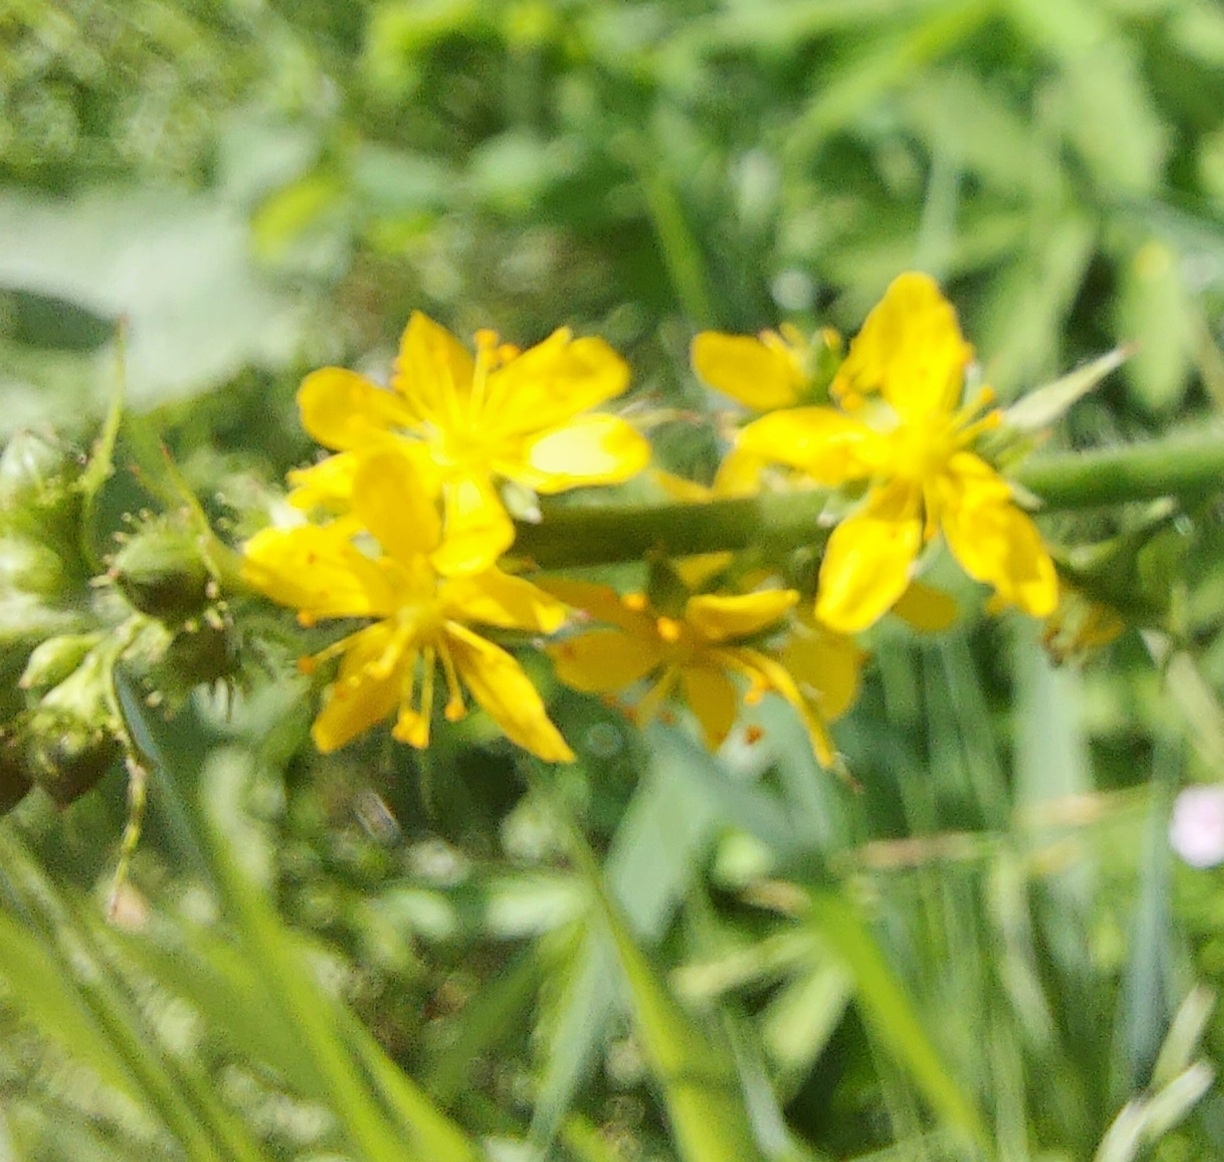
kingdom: Plantae
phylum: Tracheophyta
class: Magnoliopsida
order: Rosales
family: Rosaceae
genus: Agrimonia
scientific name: Agrimonia pilosa
